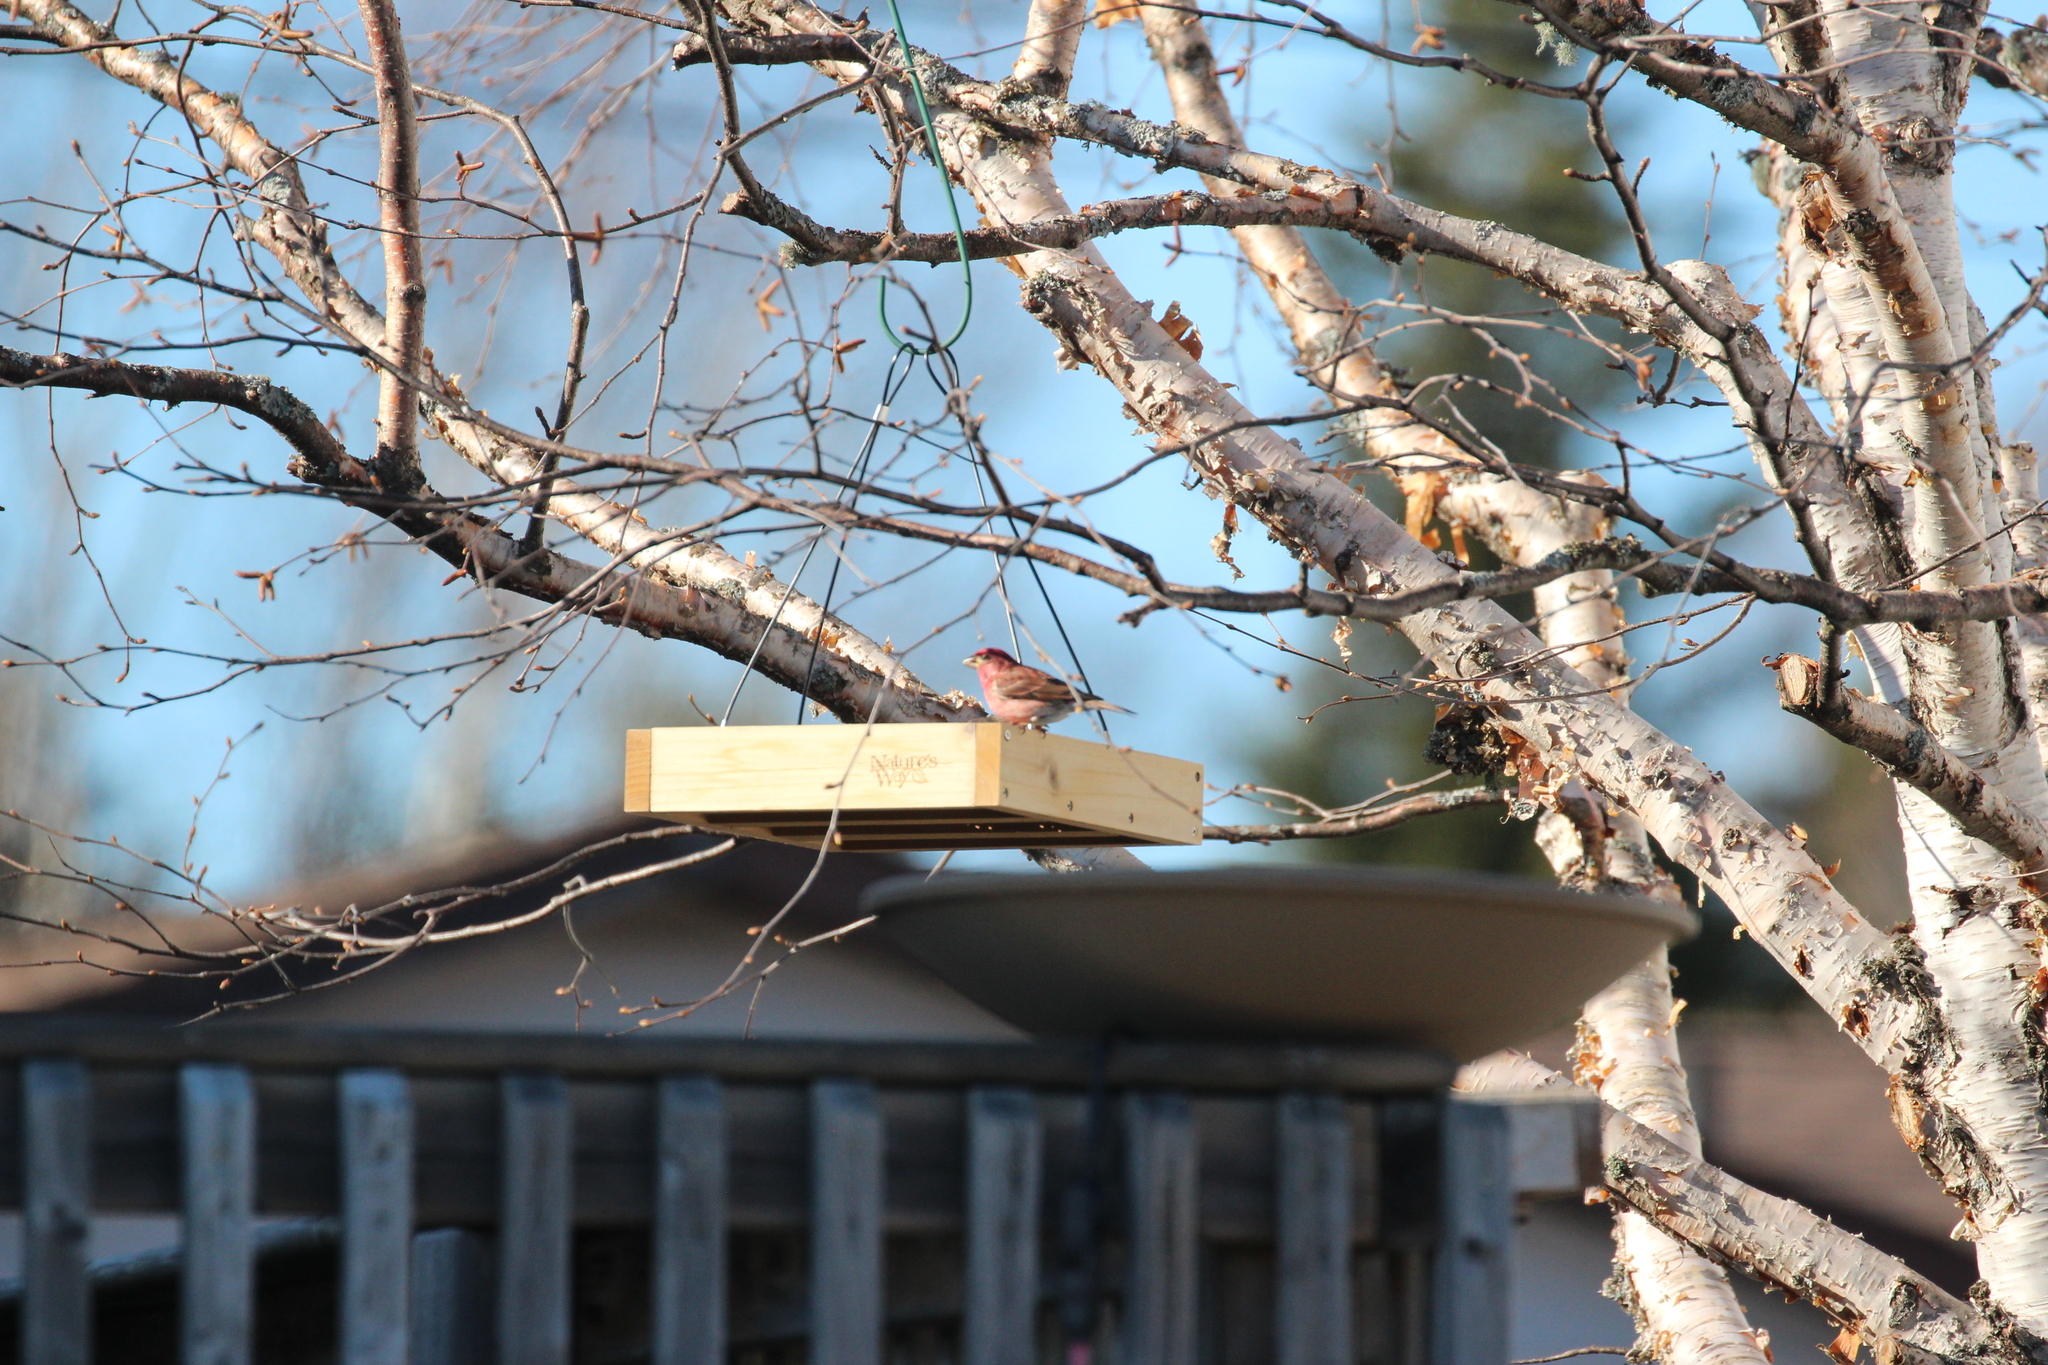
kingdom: Animalia
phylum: Chordata
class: Aves
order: Passeriformes
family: Fringillidae
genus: Haemorhous
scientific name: Haemorhous purpureus
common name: Purple finch
